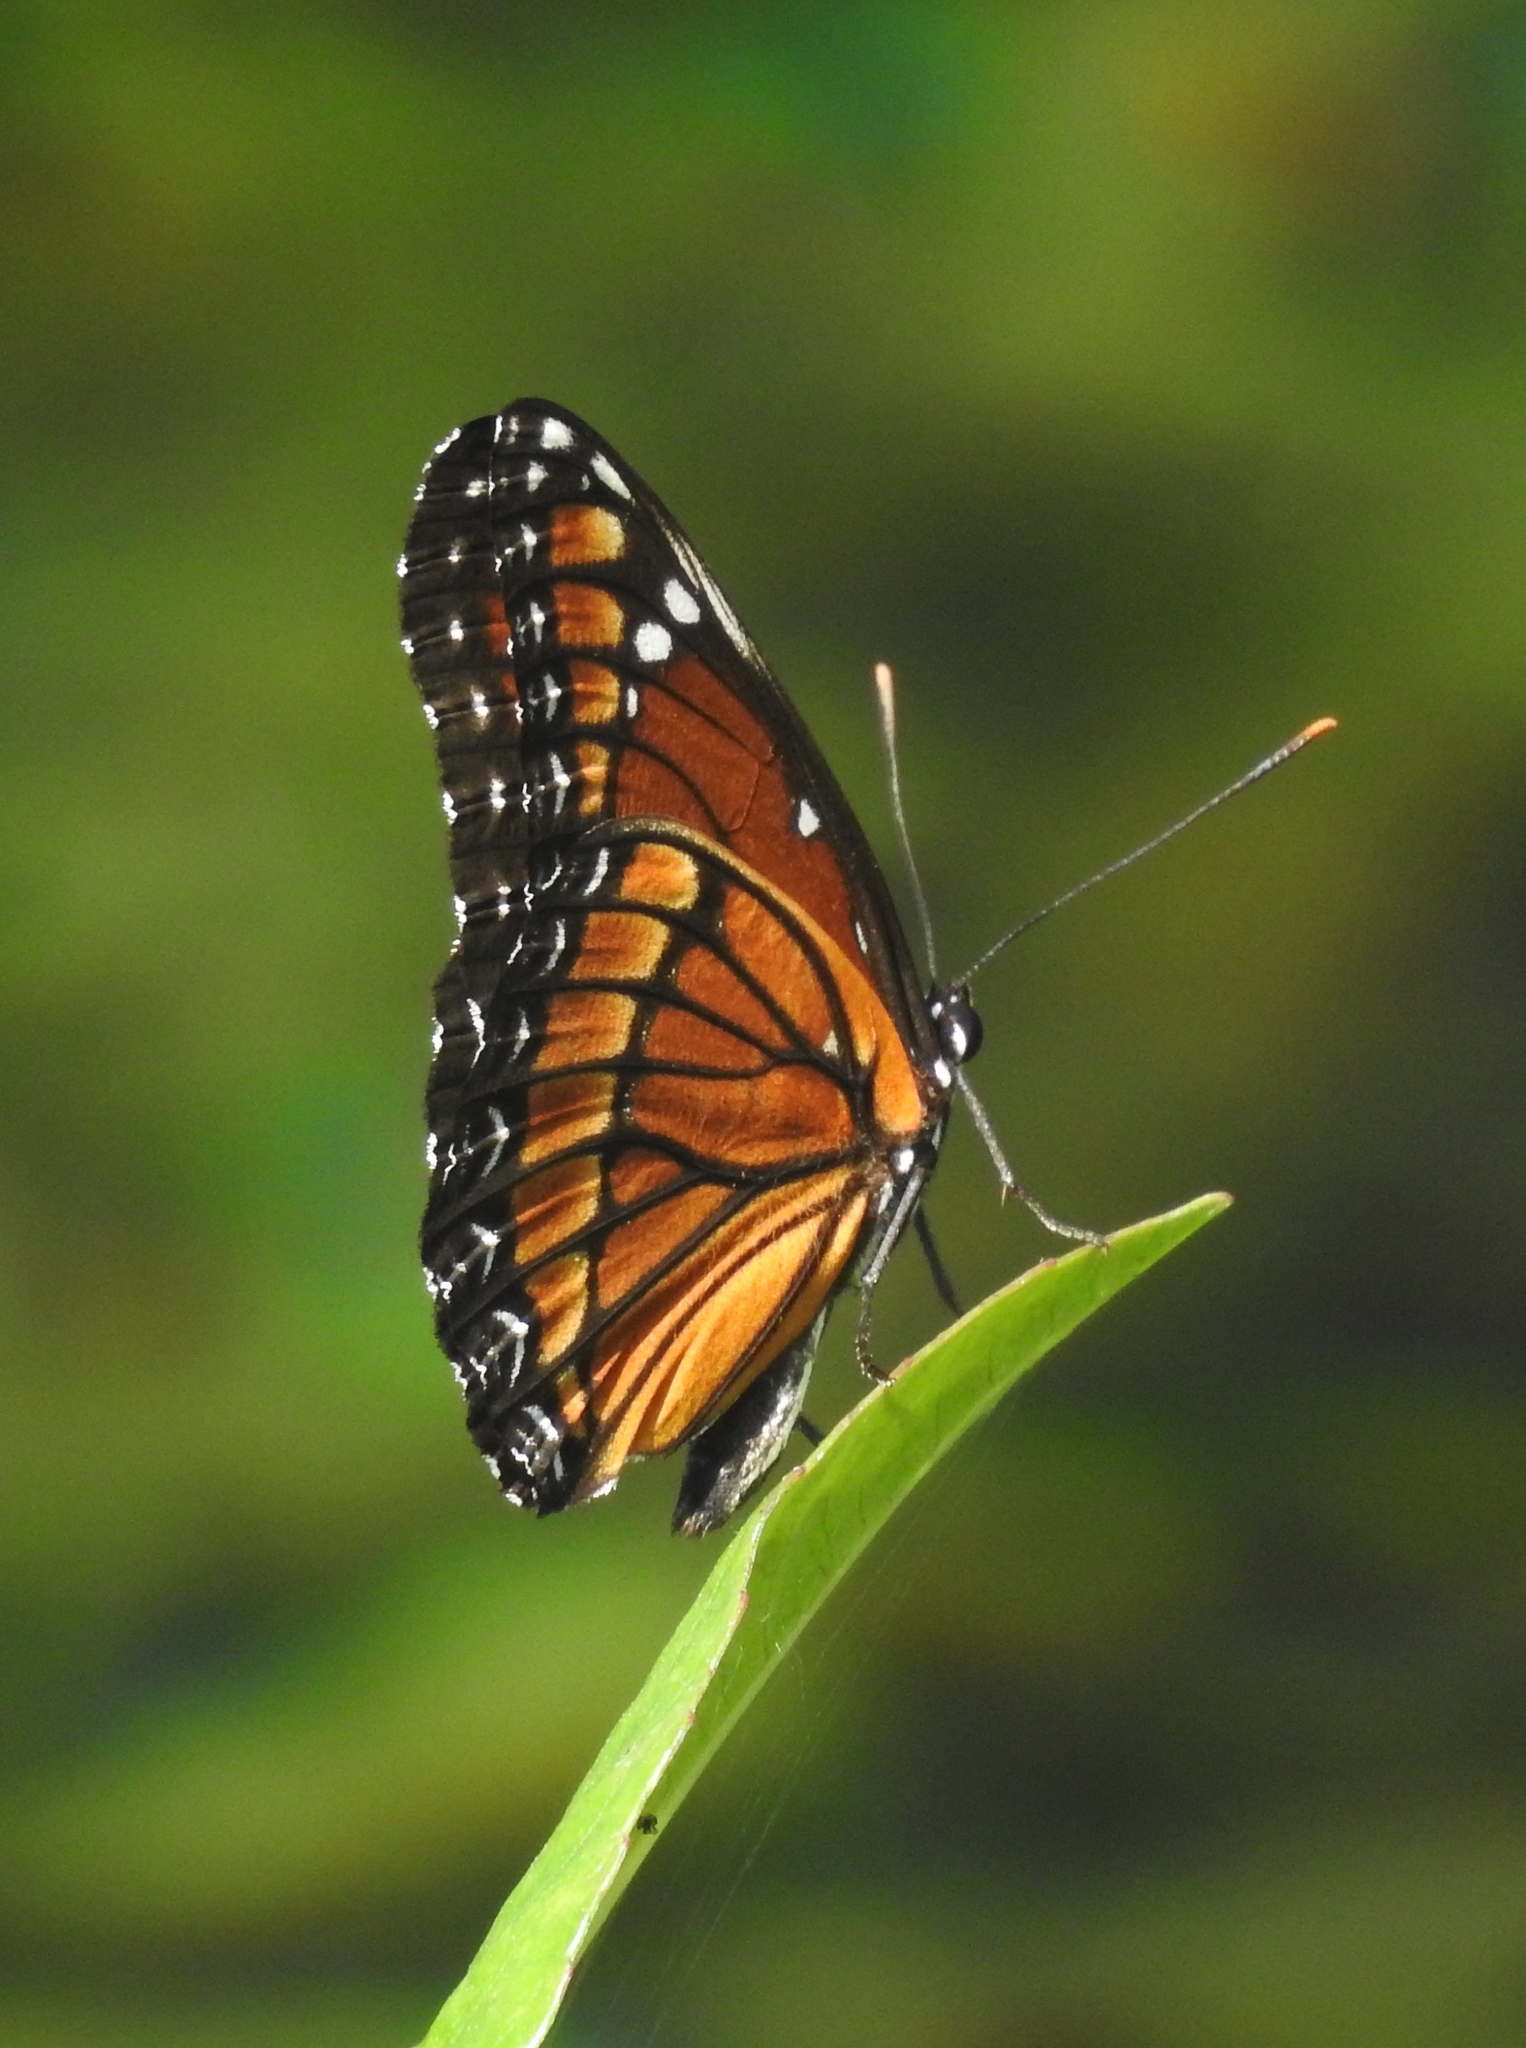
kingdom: Animalia
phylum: Arthropoda
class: Insecta
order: Lepidoptera
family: Nymphalidae
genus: Limenitis
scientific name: Limenitis archippus
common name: Viceroy
